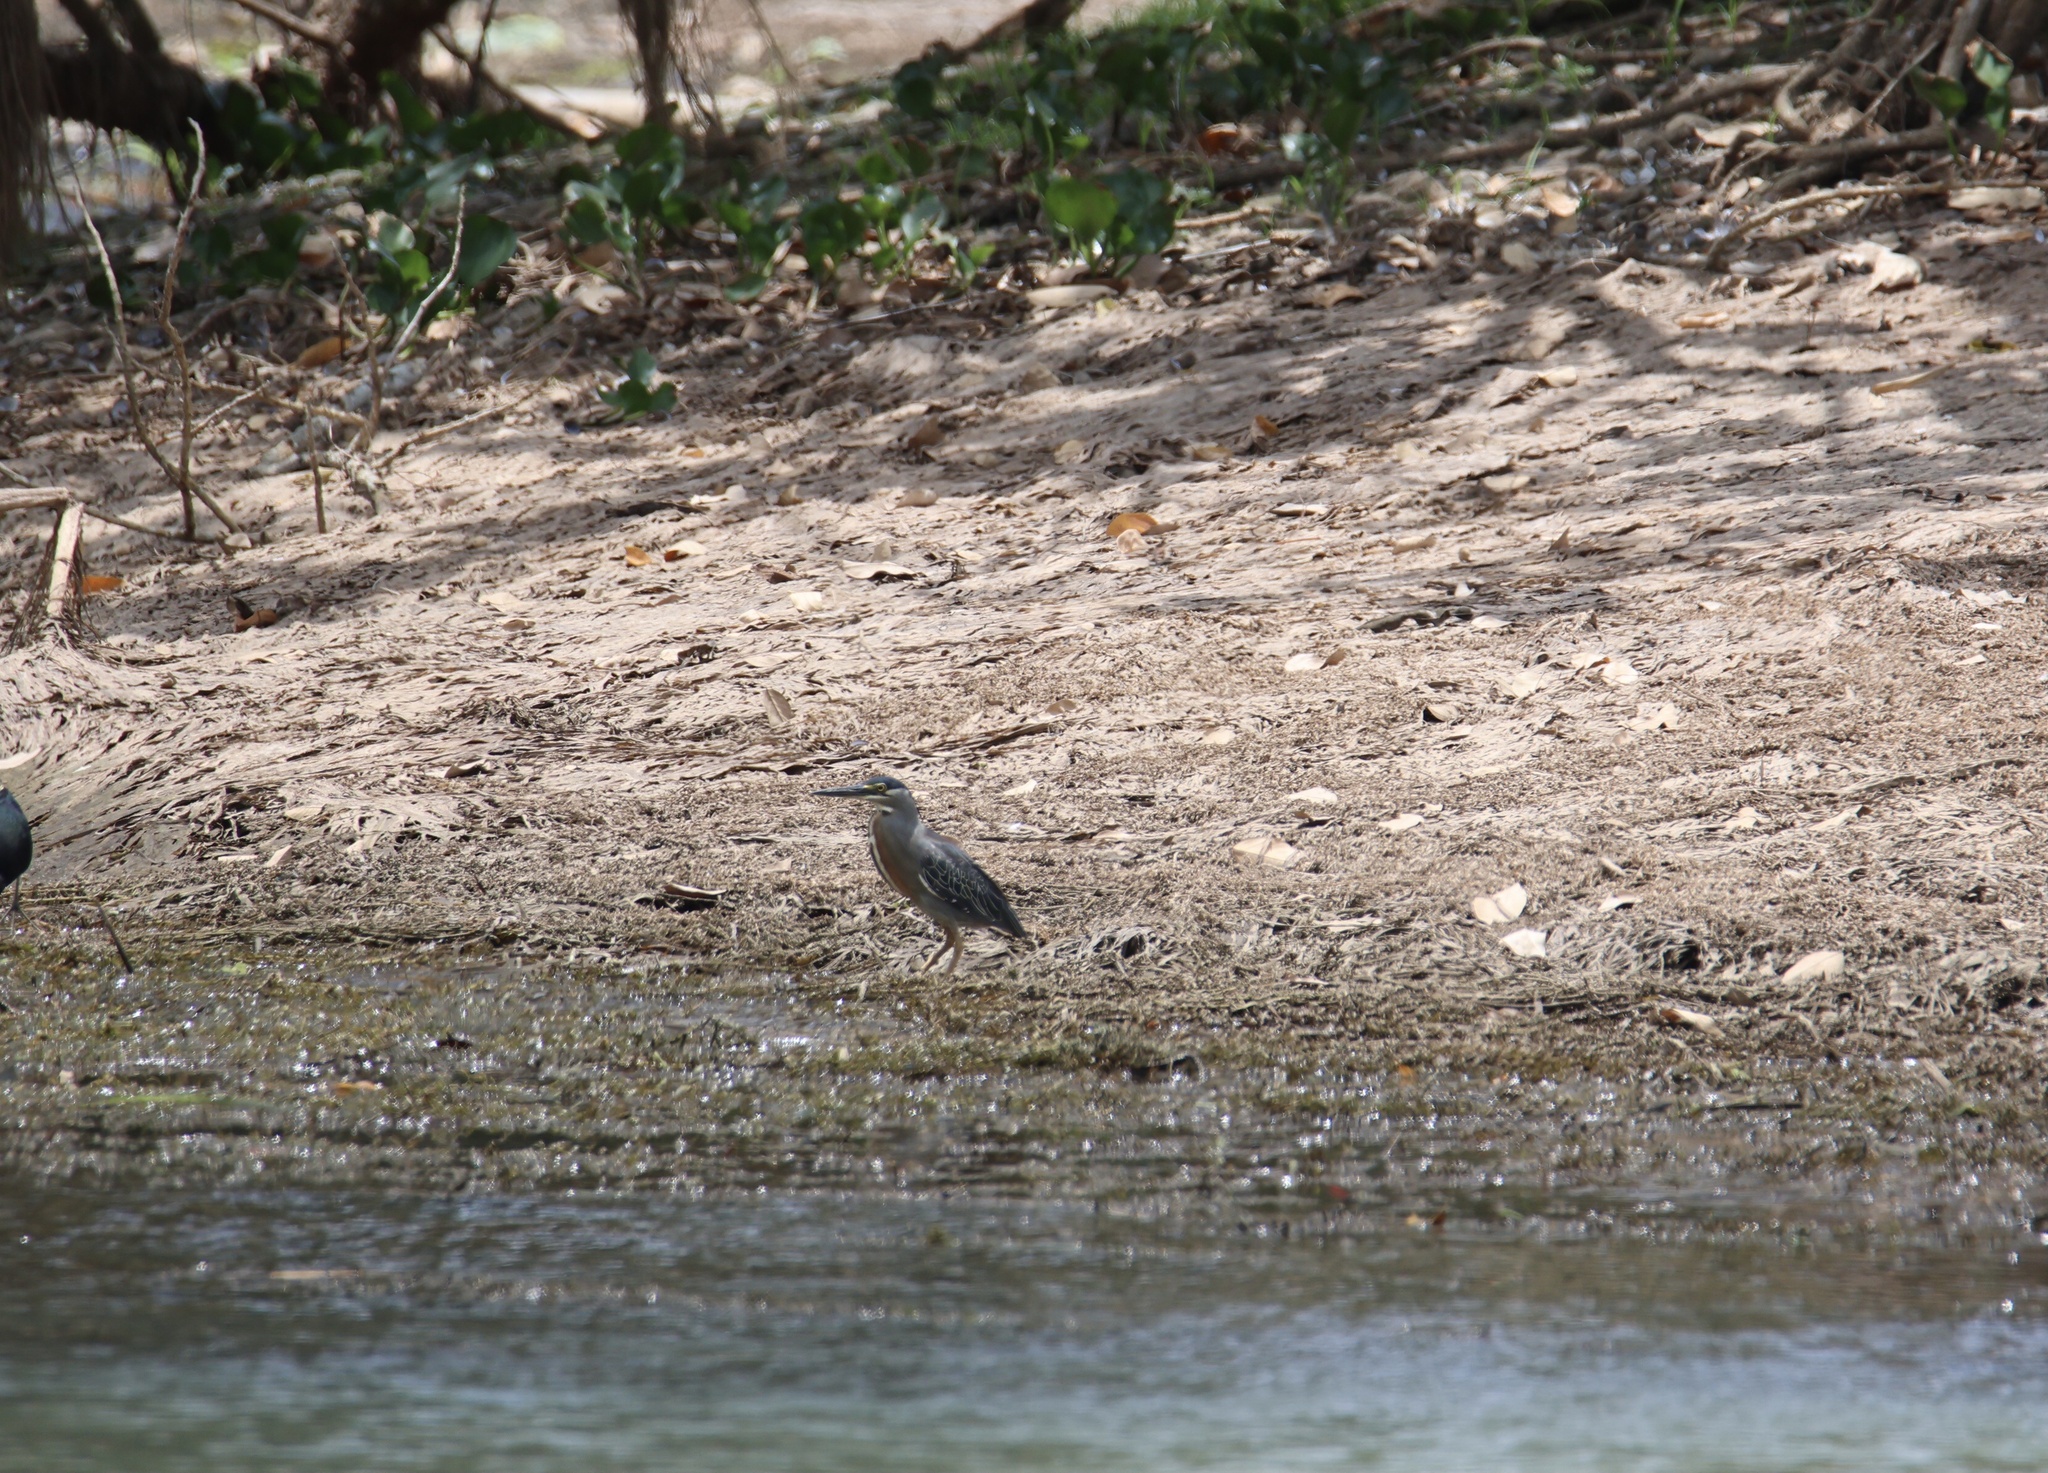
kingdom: Animalia
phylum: Chordata
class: Aves
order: Pelecaniformes
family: Ardeidae
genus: Butorides
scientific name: Butorides striata
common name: Striated heron
